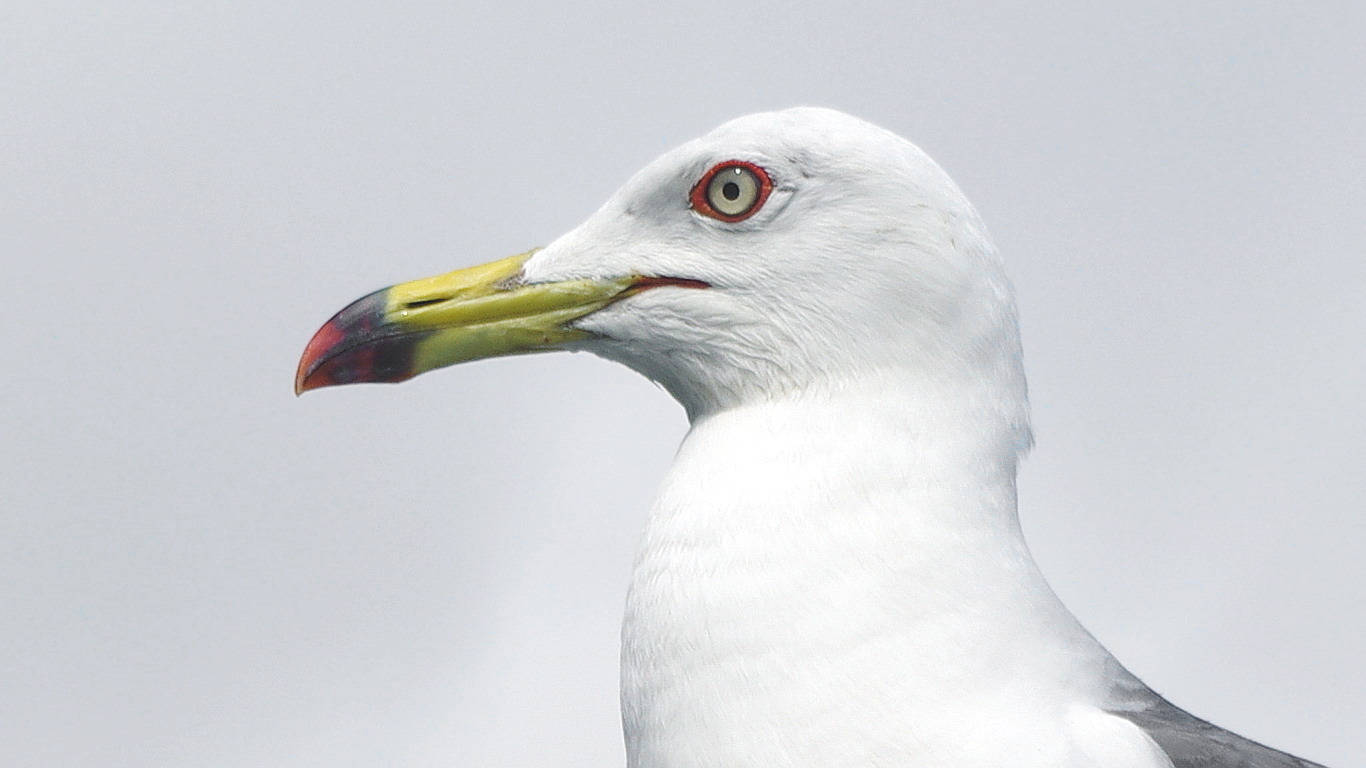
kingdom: Animalia
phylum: Chordata
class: Aves
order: Charadriiformes
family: Laridae
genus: Larus
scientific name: Larus crassirostris
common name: Black-tailed gull
